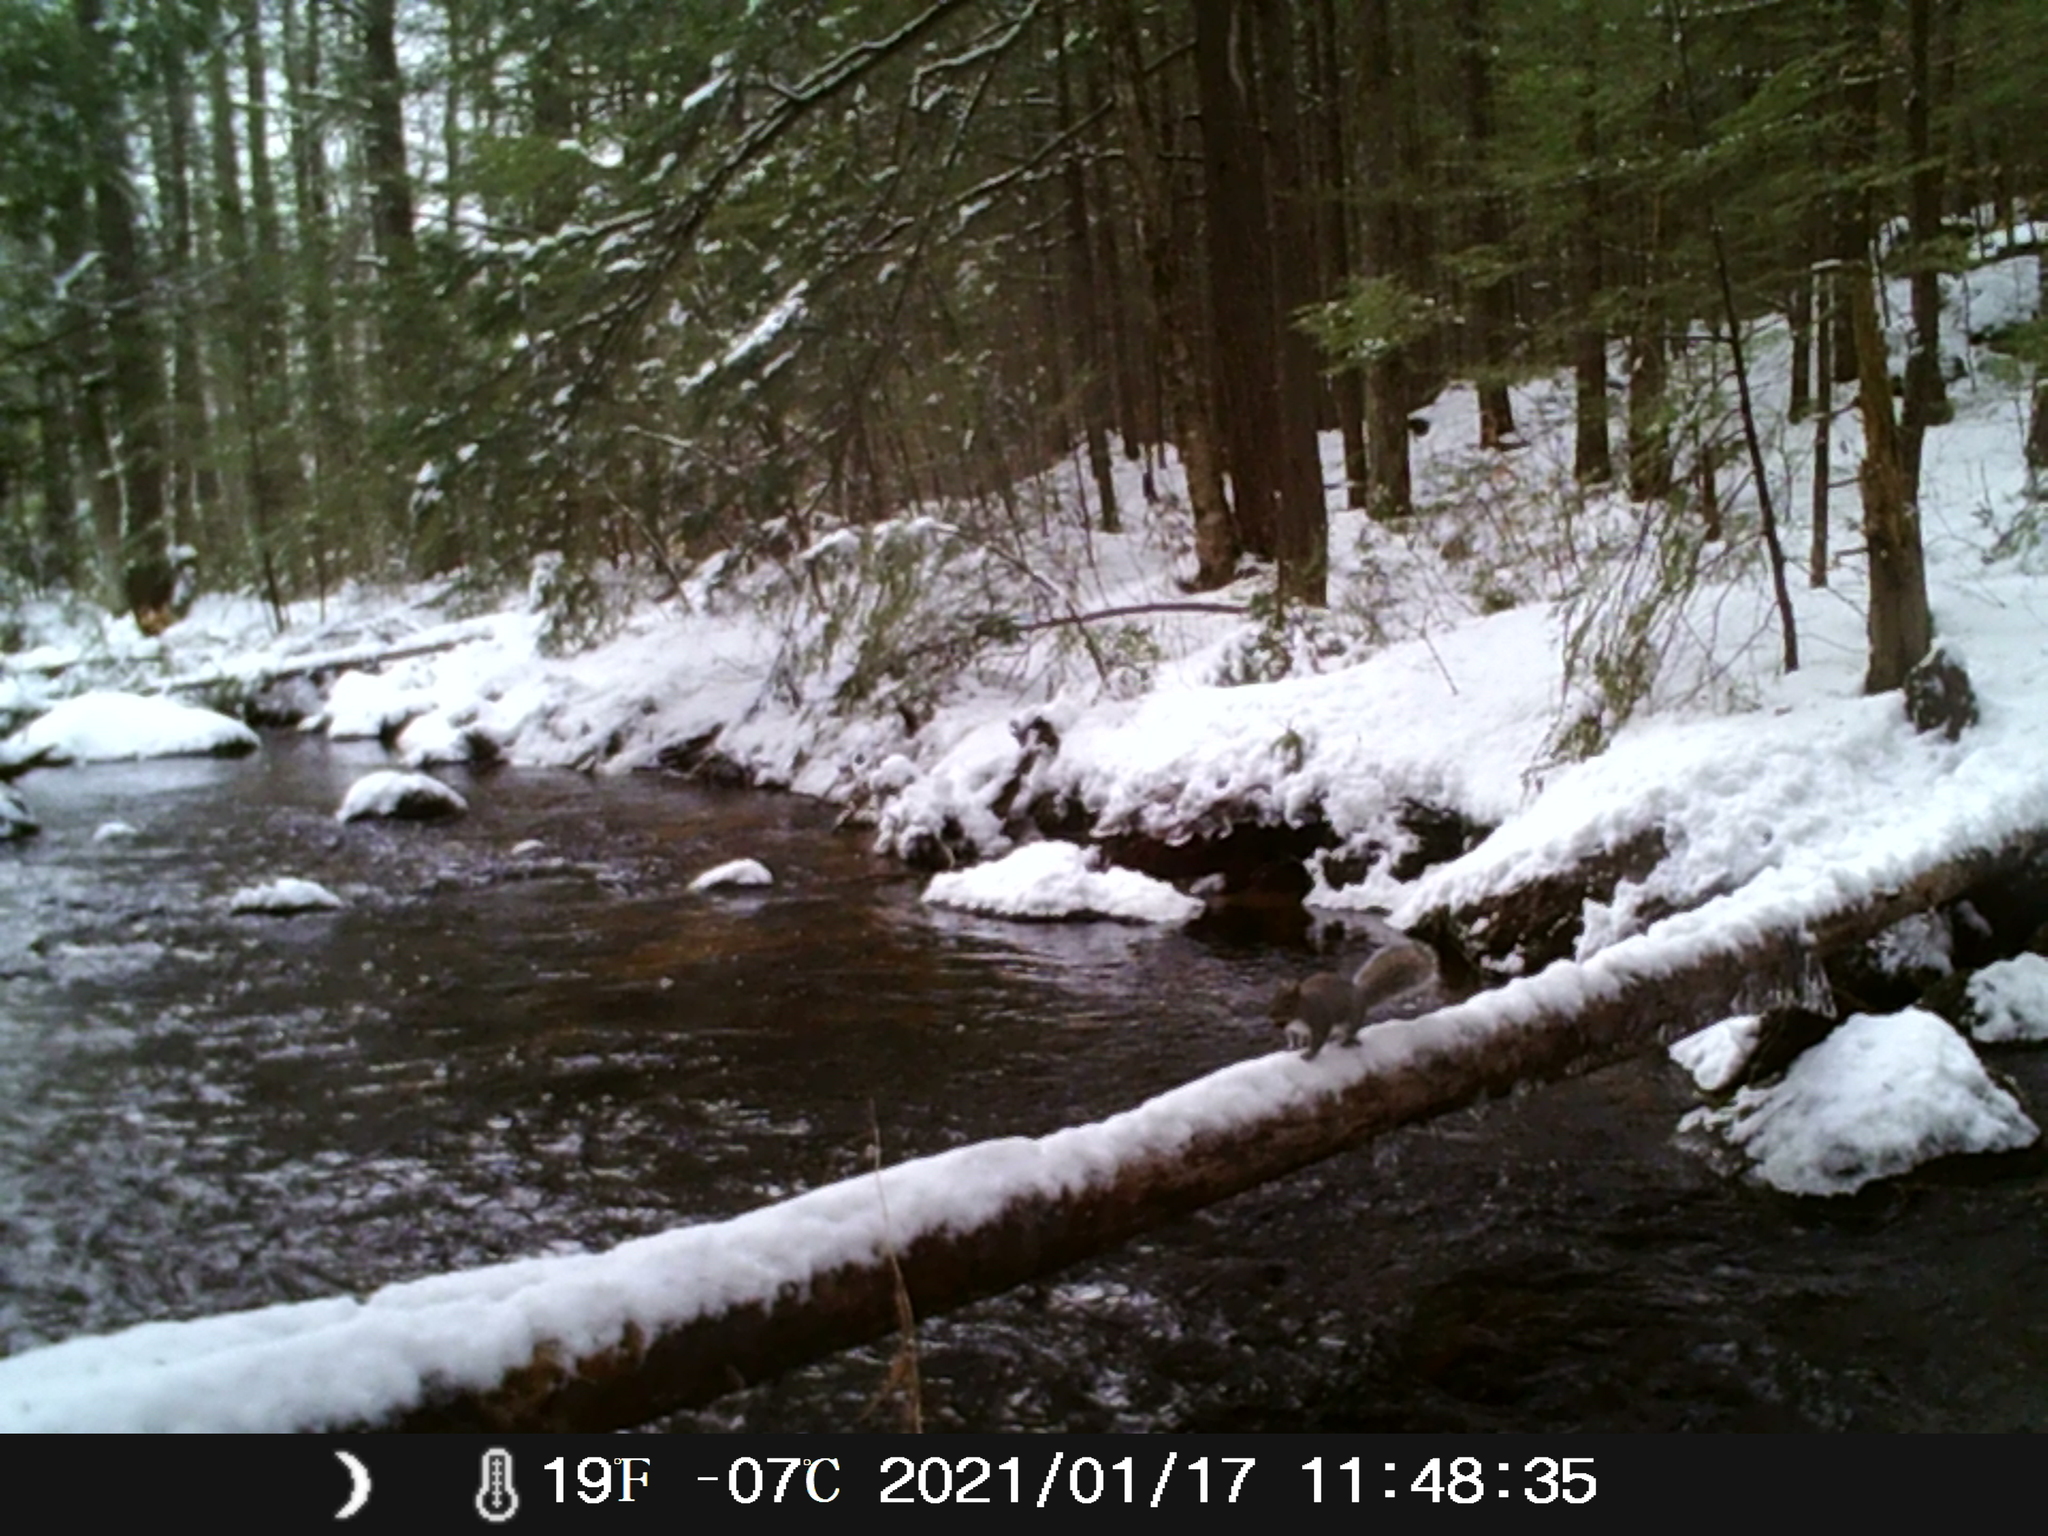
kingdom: Animalia
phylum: Chordata
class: Mammalia
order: Rodentia
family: Sciuridae
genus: Sciurus
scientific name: Sciurus carolinensis
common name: Eastern gray squirrel
